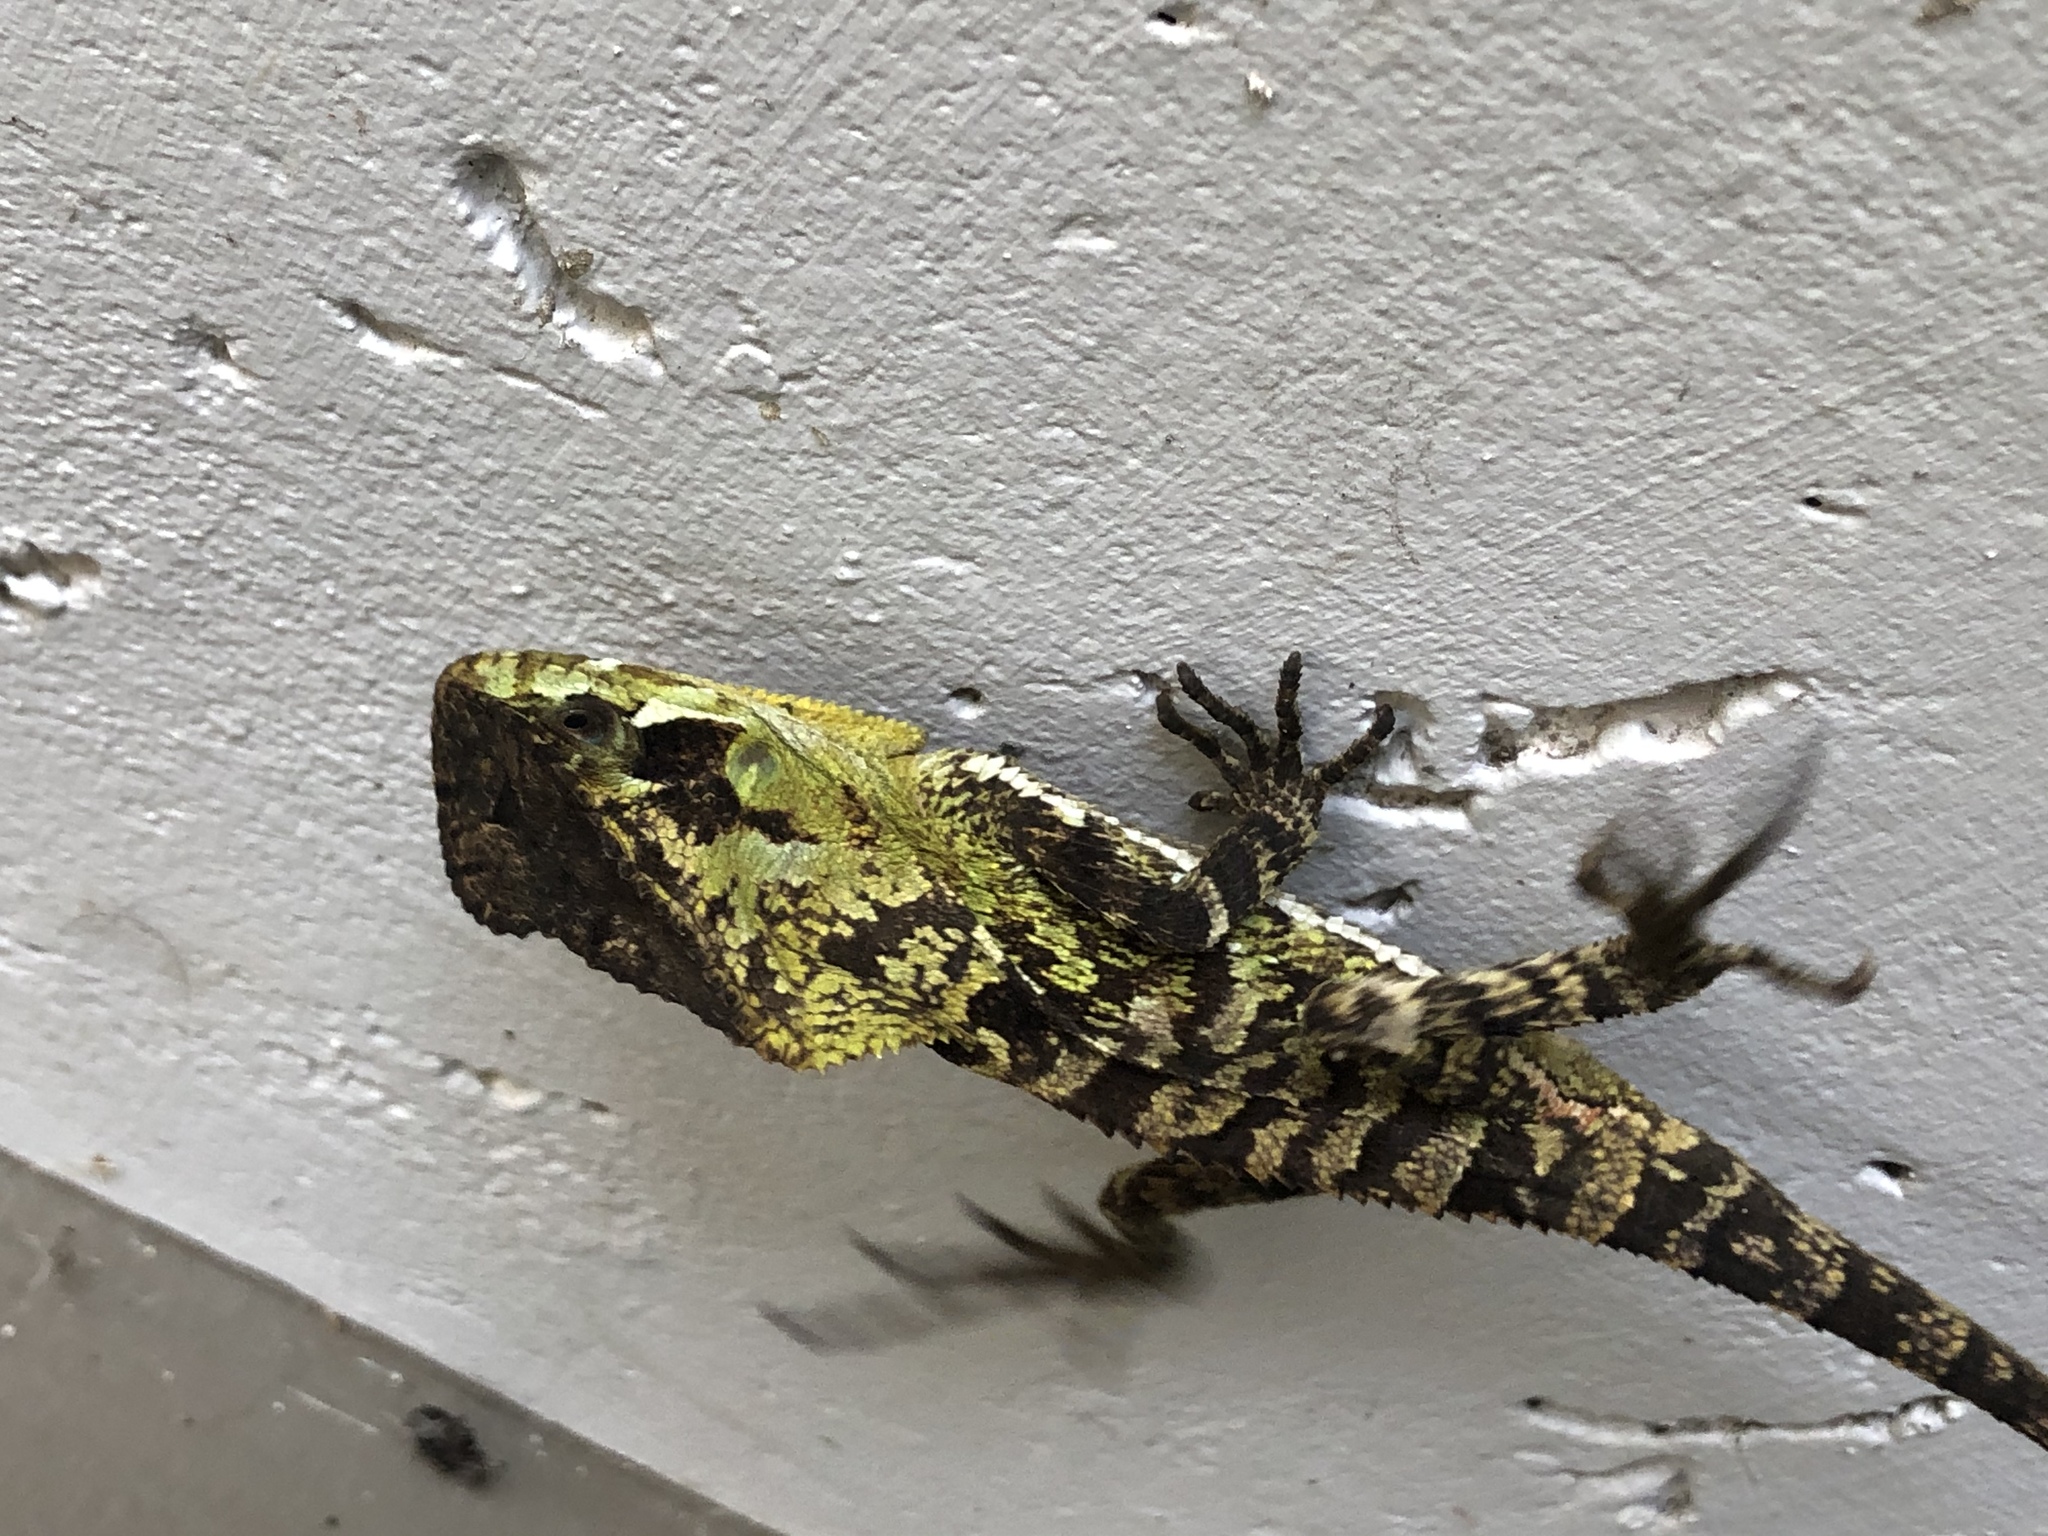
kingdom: Animalia
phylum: Chordata
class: Squamata
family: Corytophanidae
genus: Corytophanes
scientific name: Corytophanes percarinatus
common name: Keeled helmeted iguana
